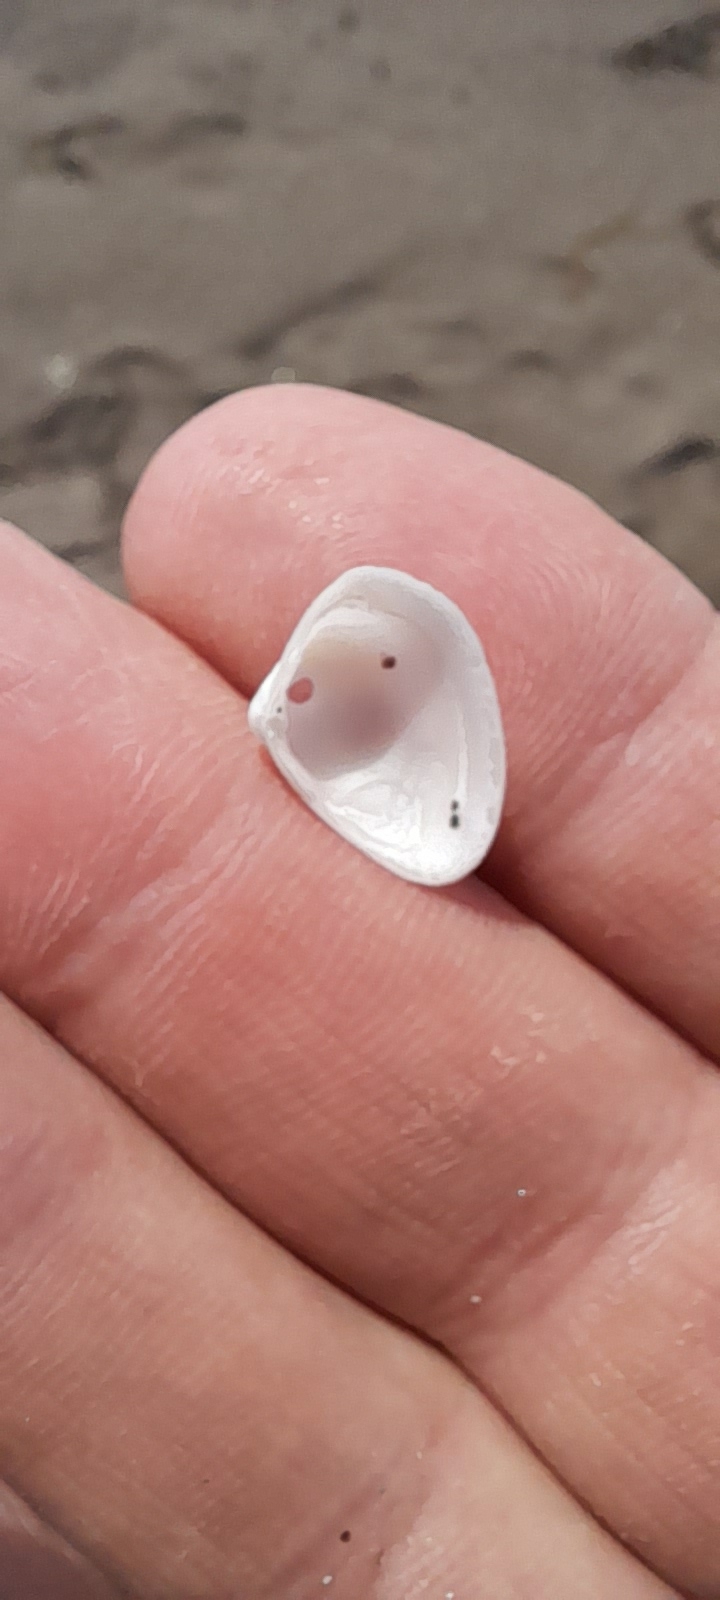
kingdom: Animalia
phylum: Mollusca
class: Bivalvia
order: Venerida
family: Mactridae
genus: Spisula
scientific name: Spisula subtruncata
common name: Cut trough shell
